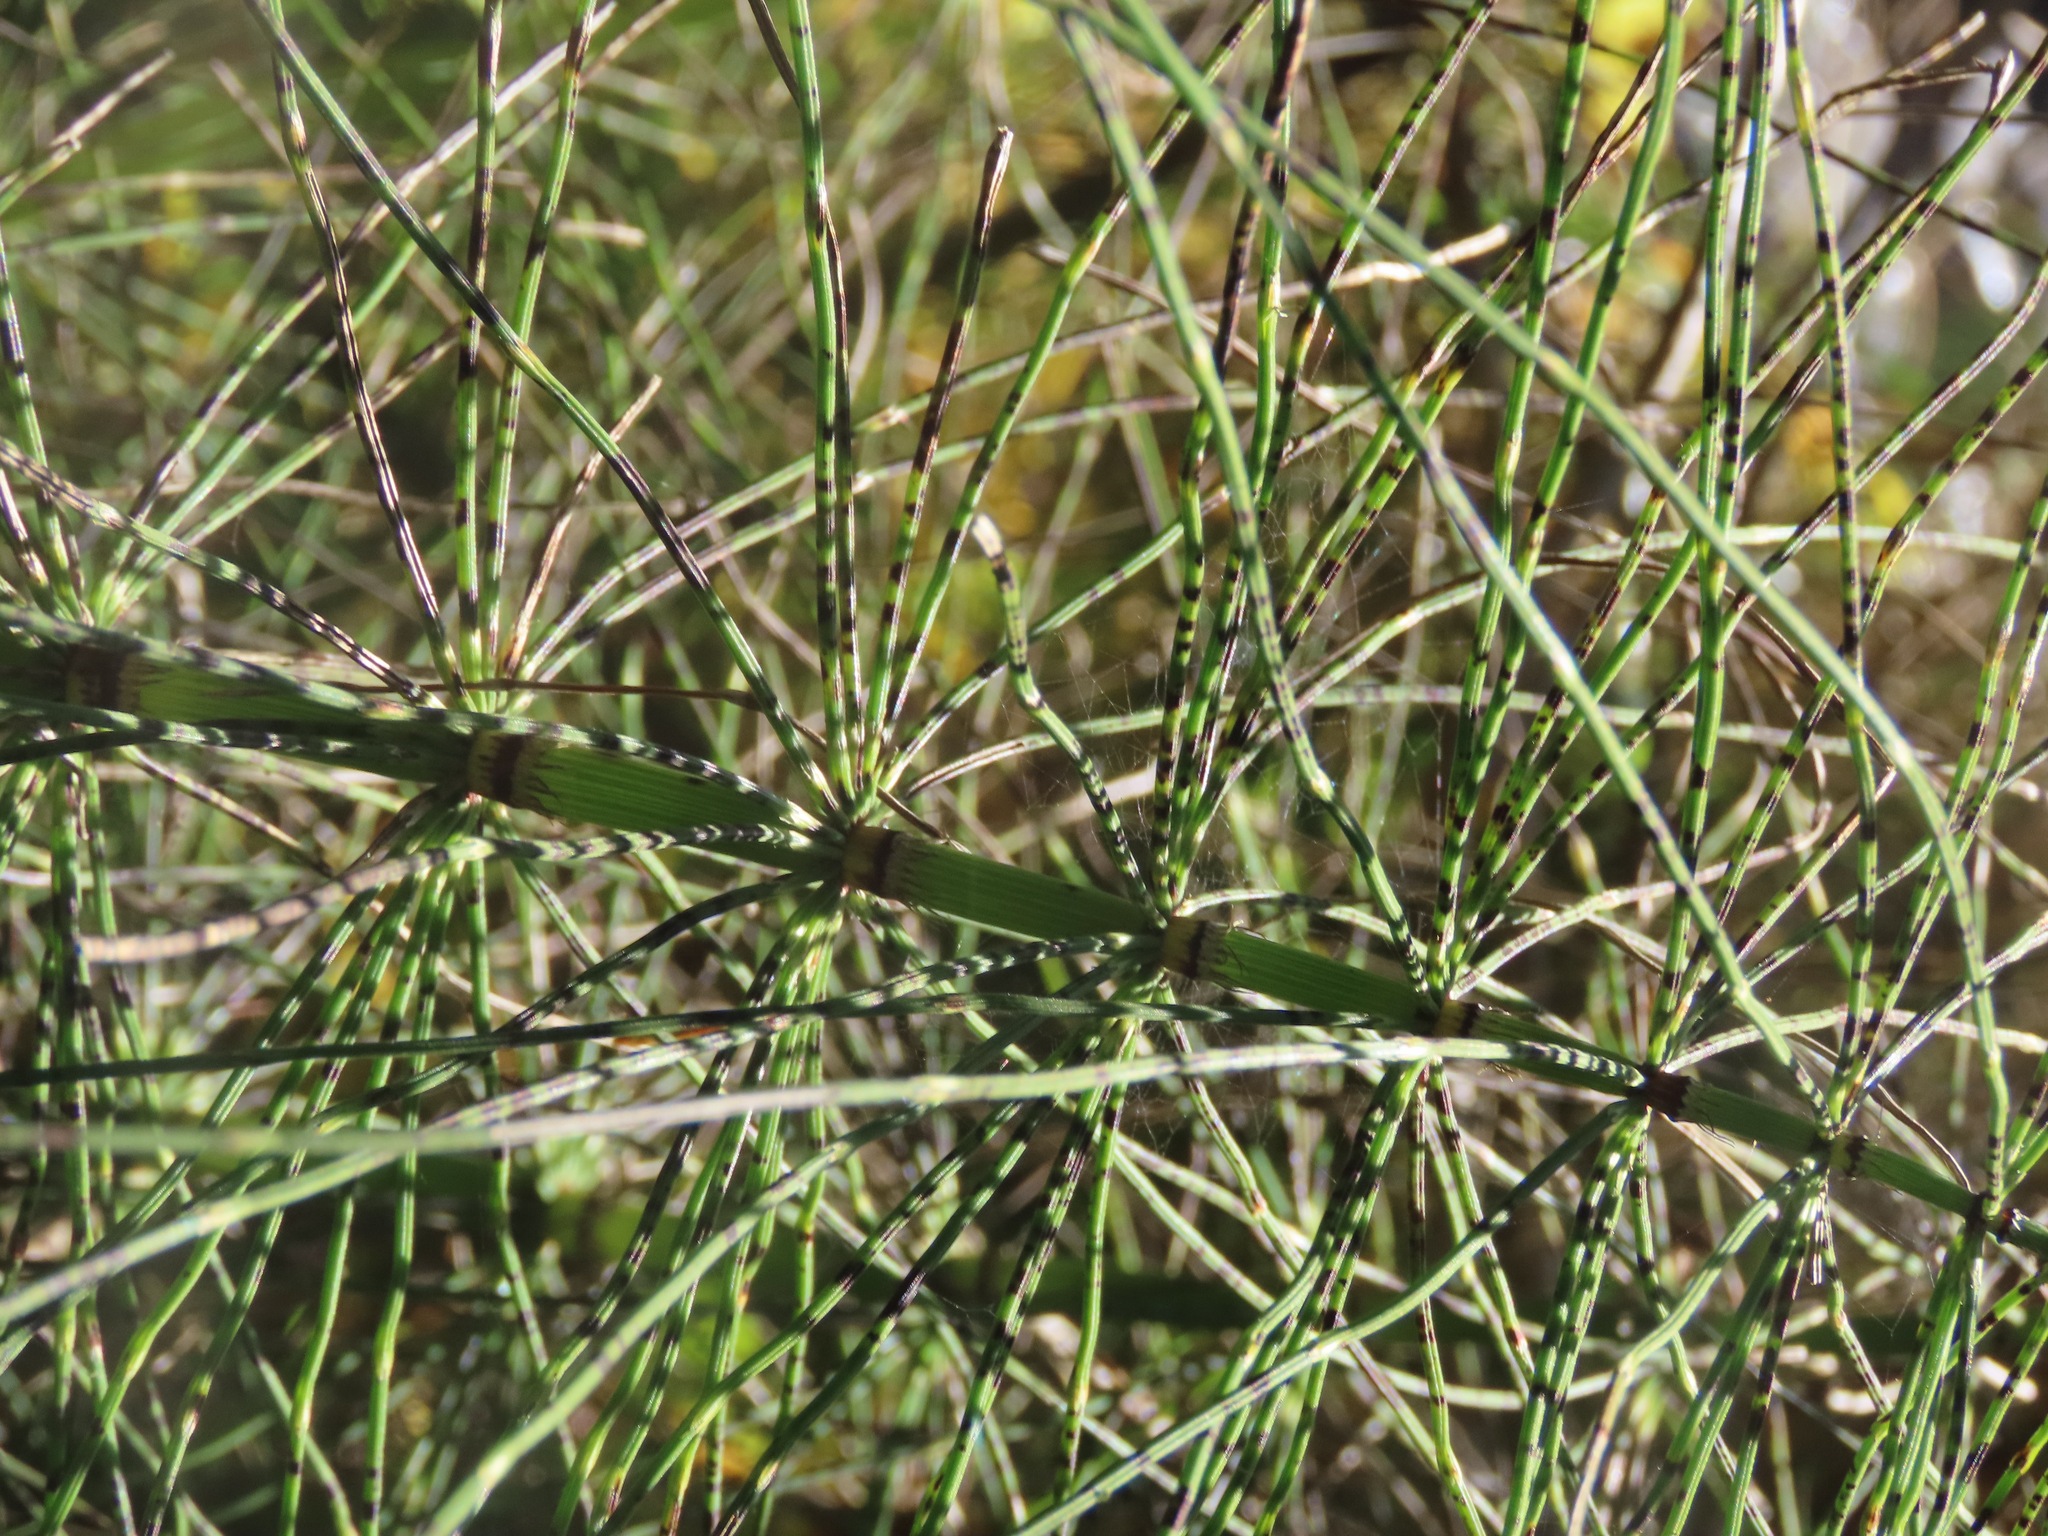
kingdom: Plantae
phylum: Tracheophyta
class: Polypodiopsida
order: Equisetales
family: Equisetaceae
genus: Equisetum
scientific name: Equisetum braunii
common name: Braun's horsetail
